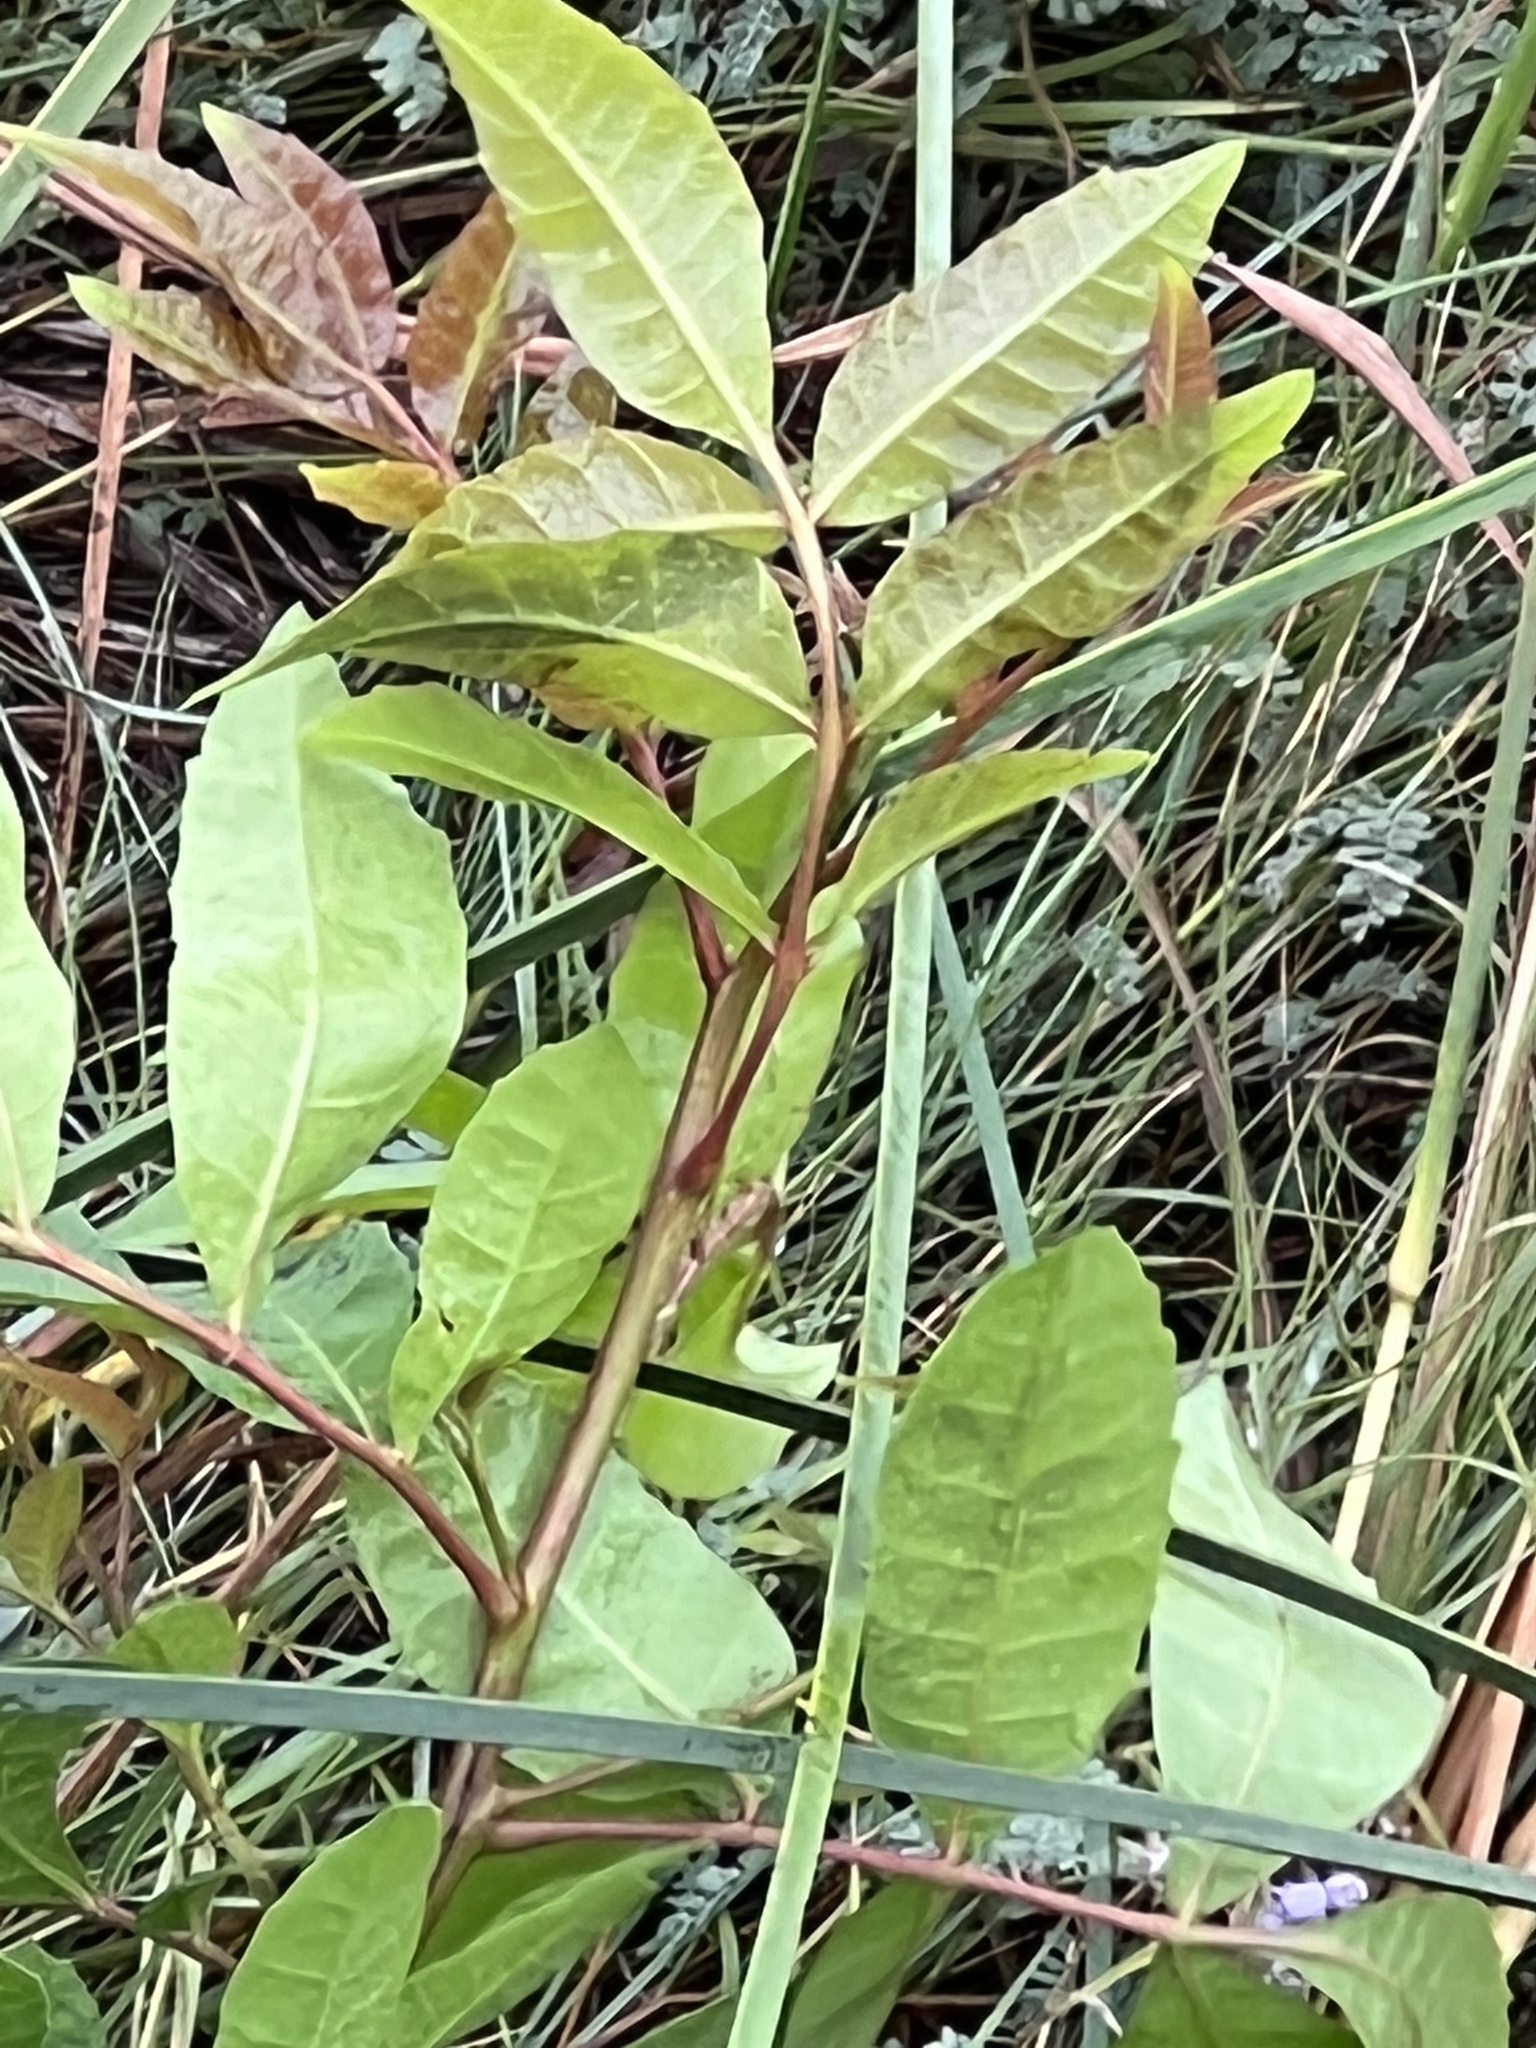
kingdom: Plantae
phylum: Tracheophyta
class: Magnoliopsida
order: Sapindales
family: Anacardiaceae
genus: Schinus
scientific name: Schinus terebinthifolia
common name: Brazilian peppertree
